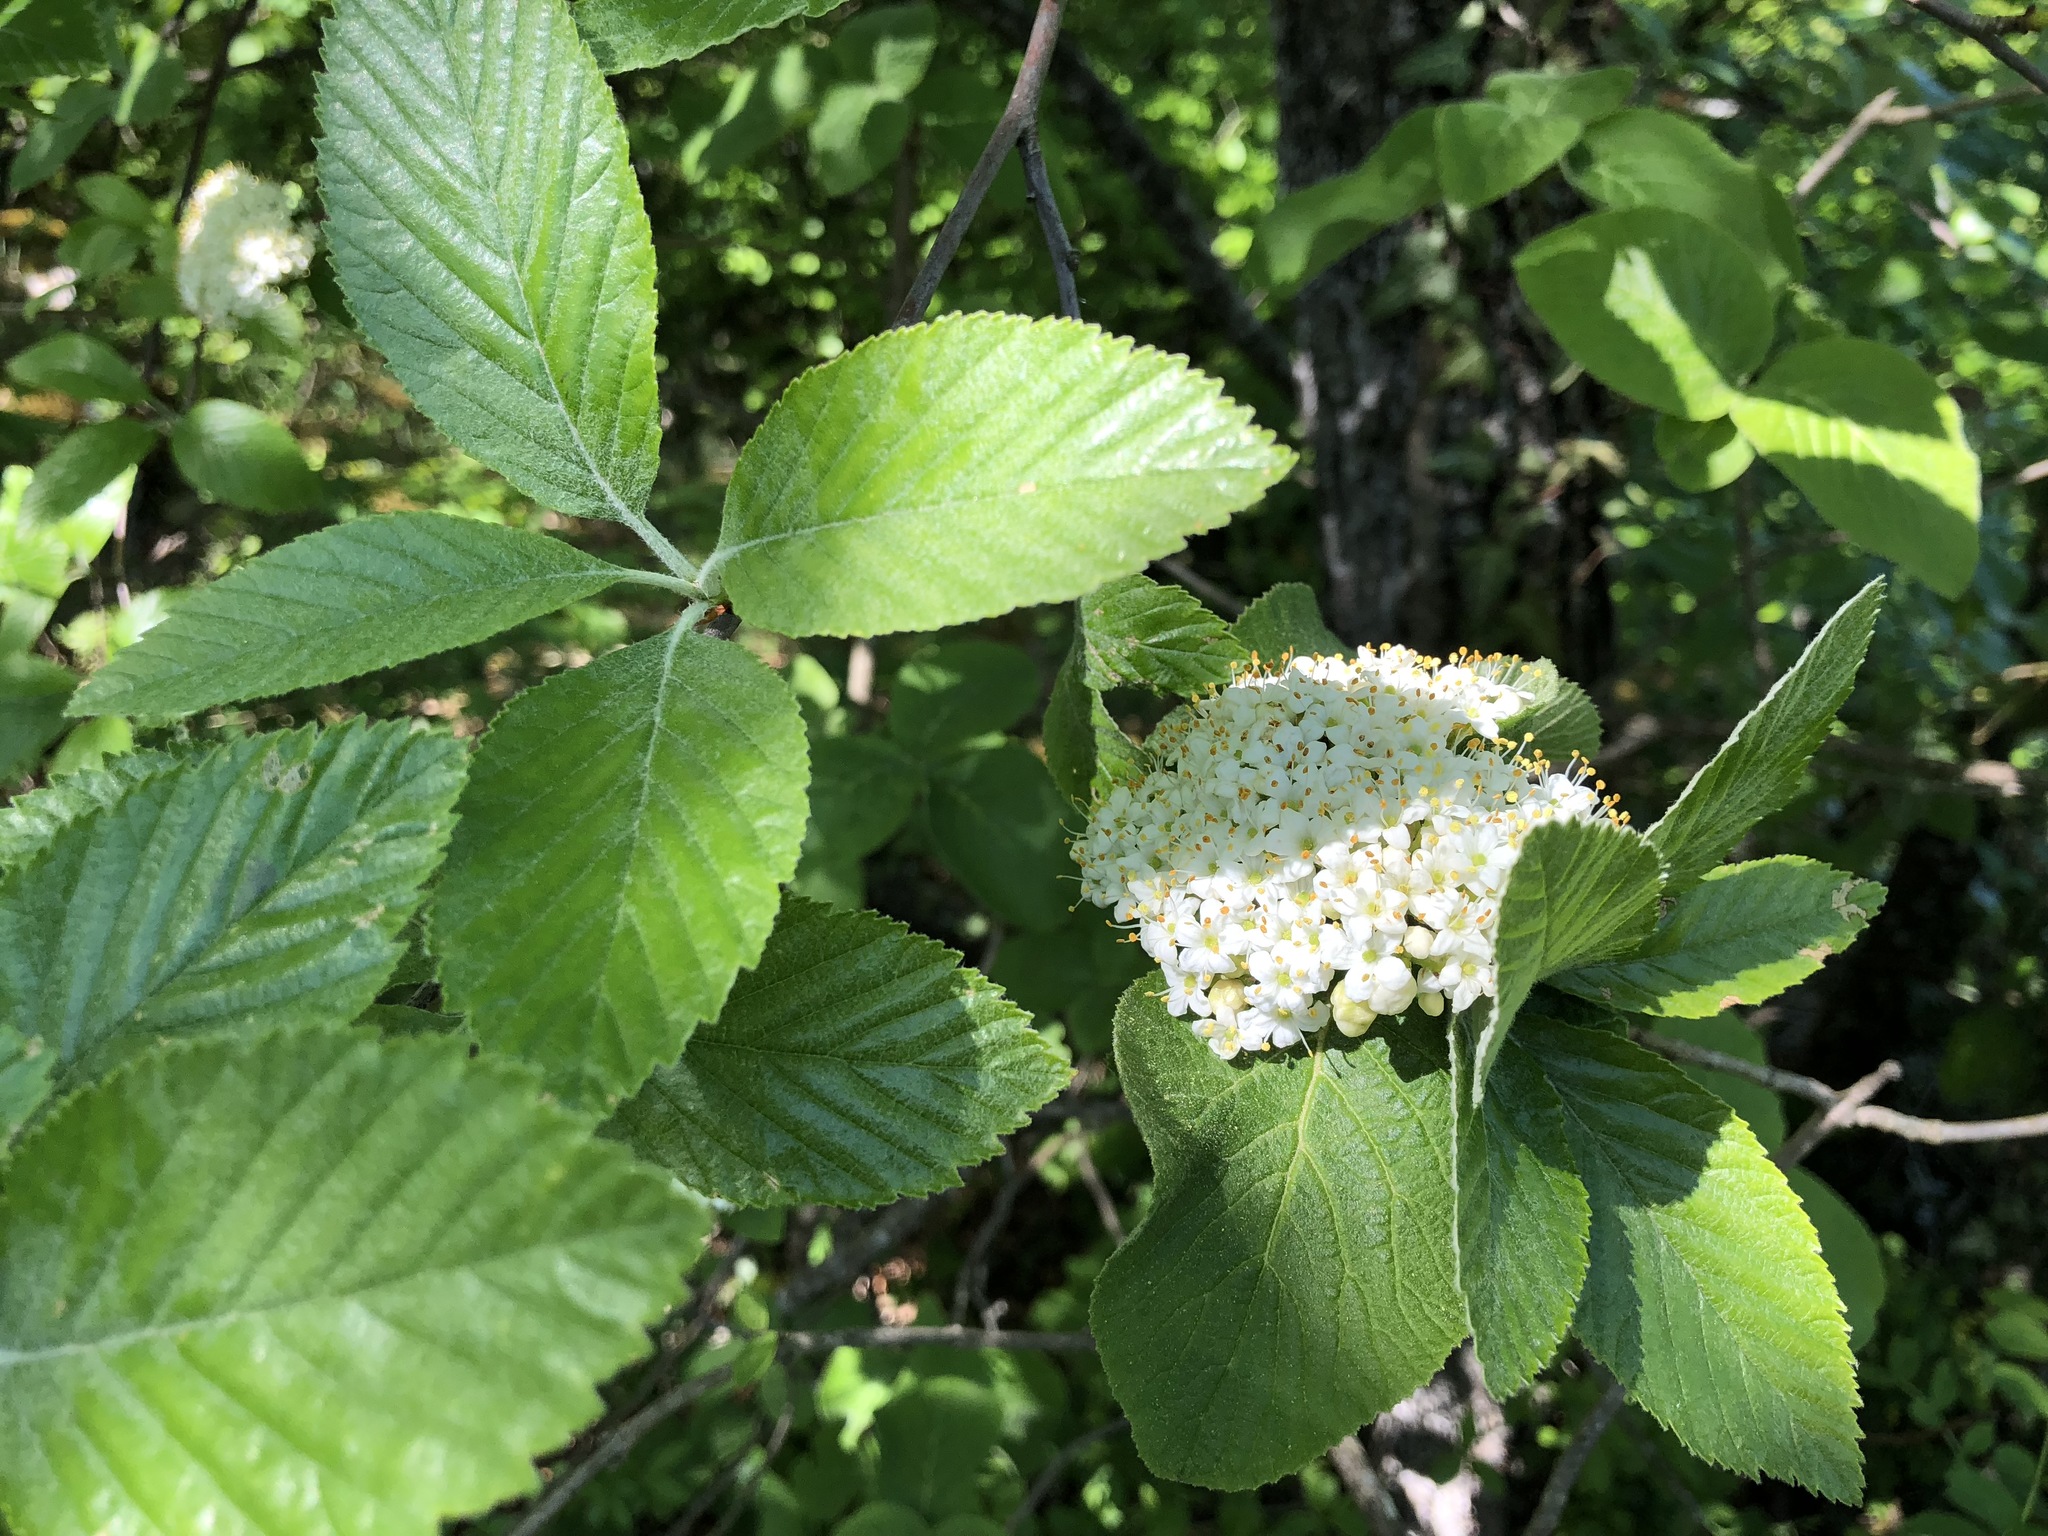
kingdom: Plantae
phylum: Tracheophyta
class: Magnoliopsida
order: Dipsacales
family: Viburnaceae
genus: Viburnum
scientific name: Viburnum lantana
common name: Wayfaring tree
